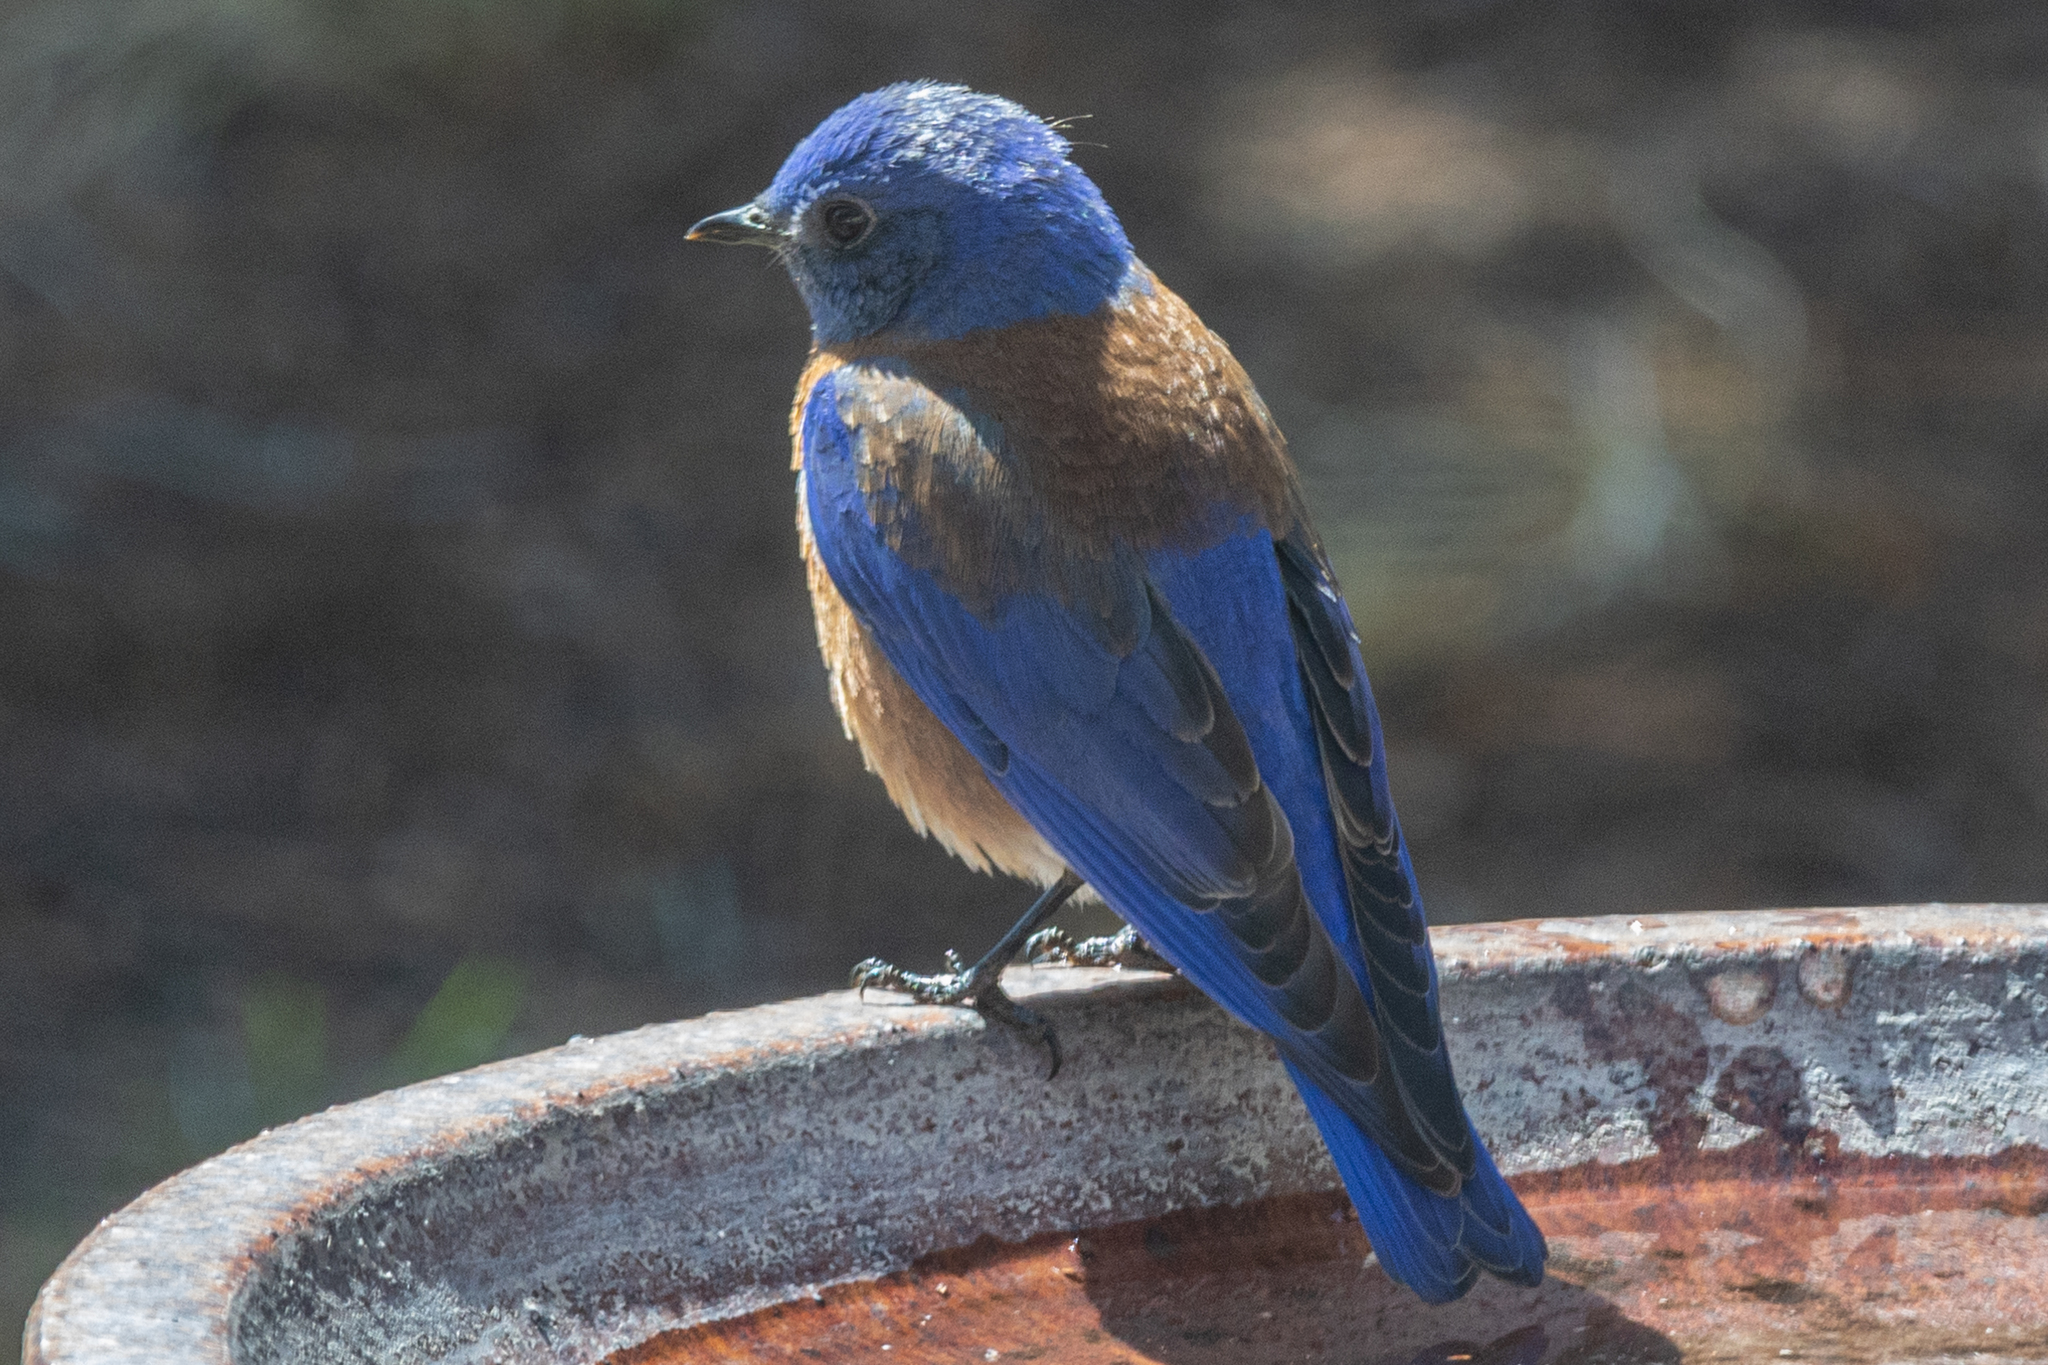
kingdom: Animalia
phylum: Chordata
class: Aves
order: Passeriformes
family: Turdidae
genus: Sialia
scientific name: Sialia mexicana
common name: Western bluebird
